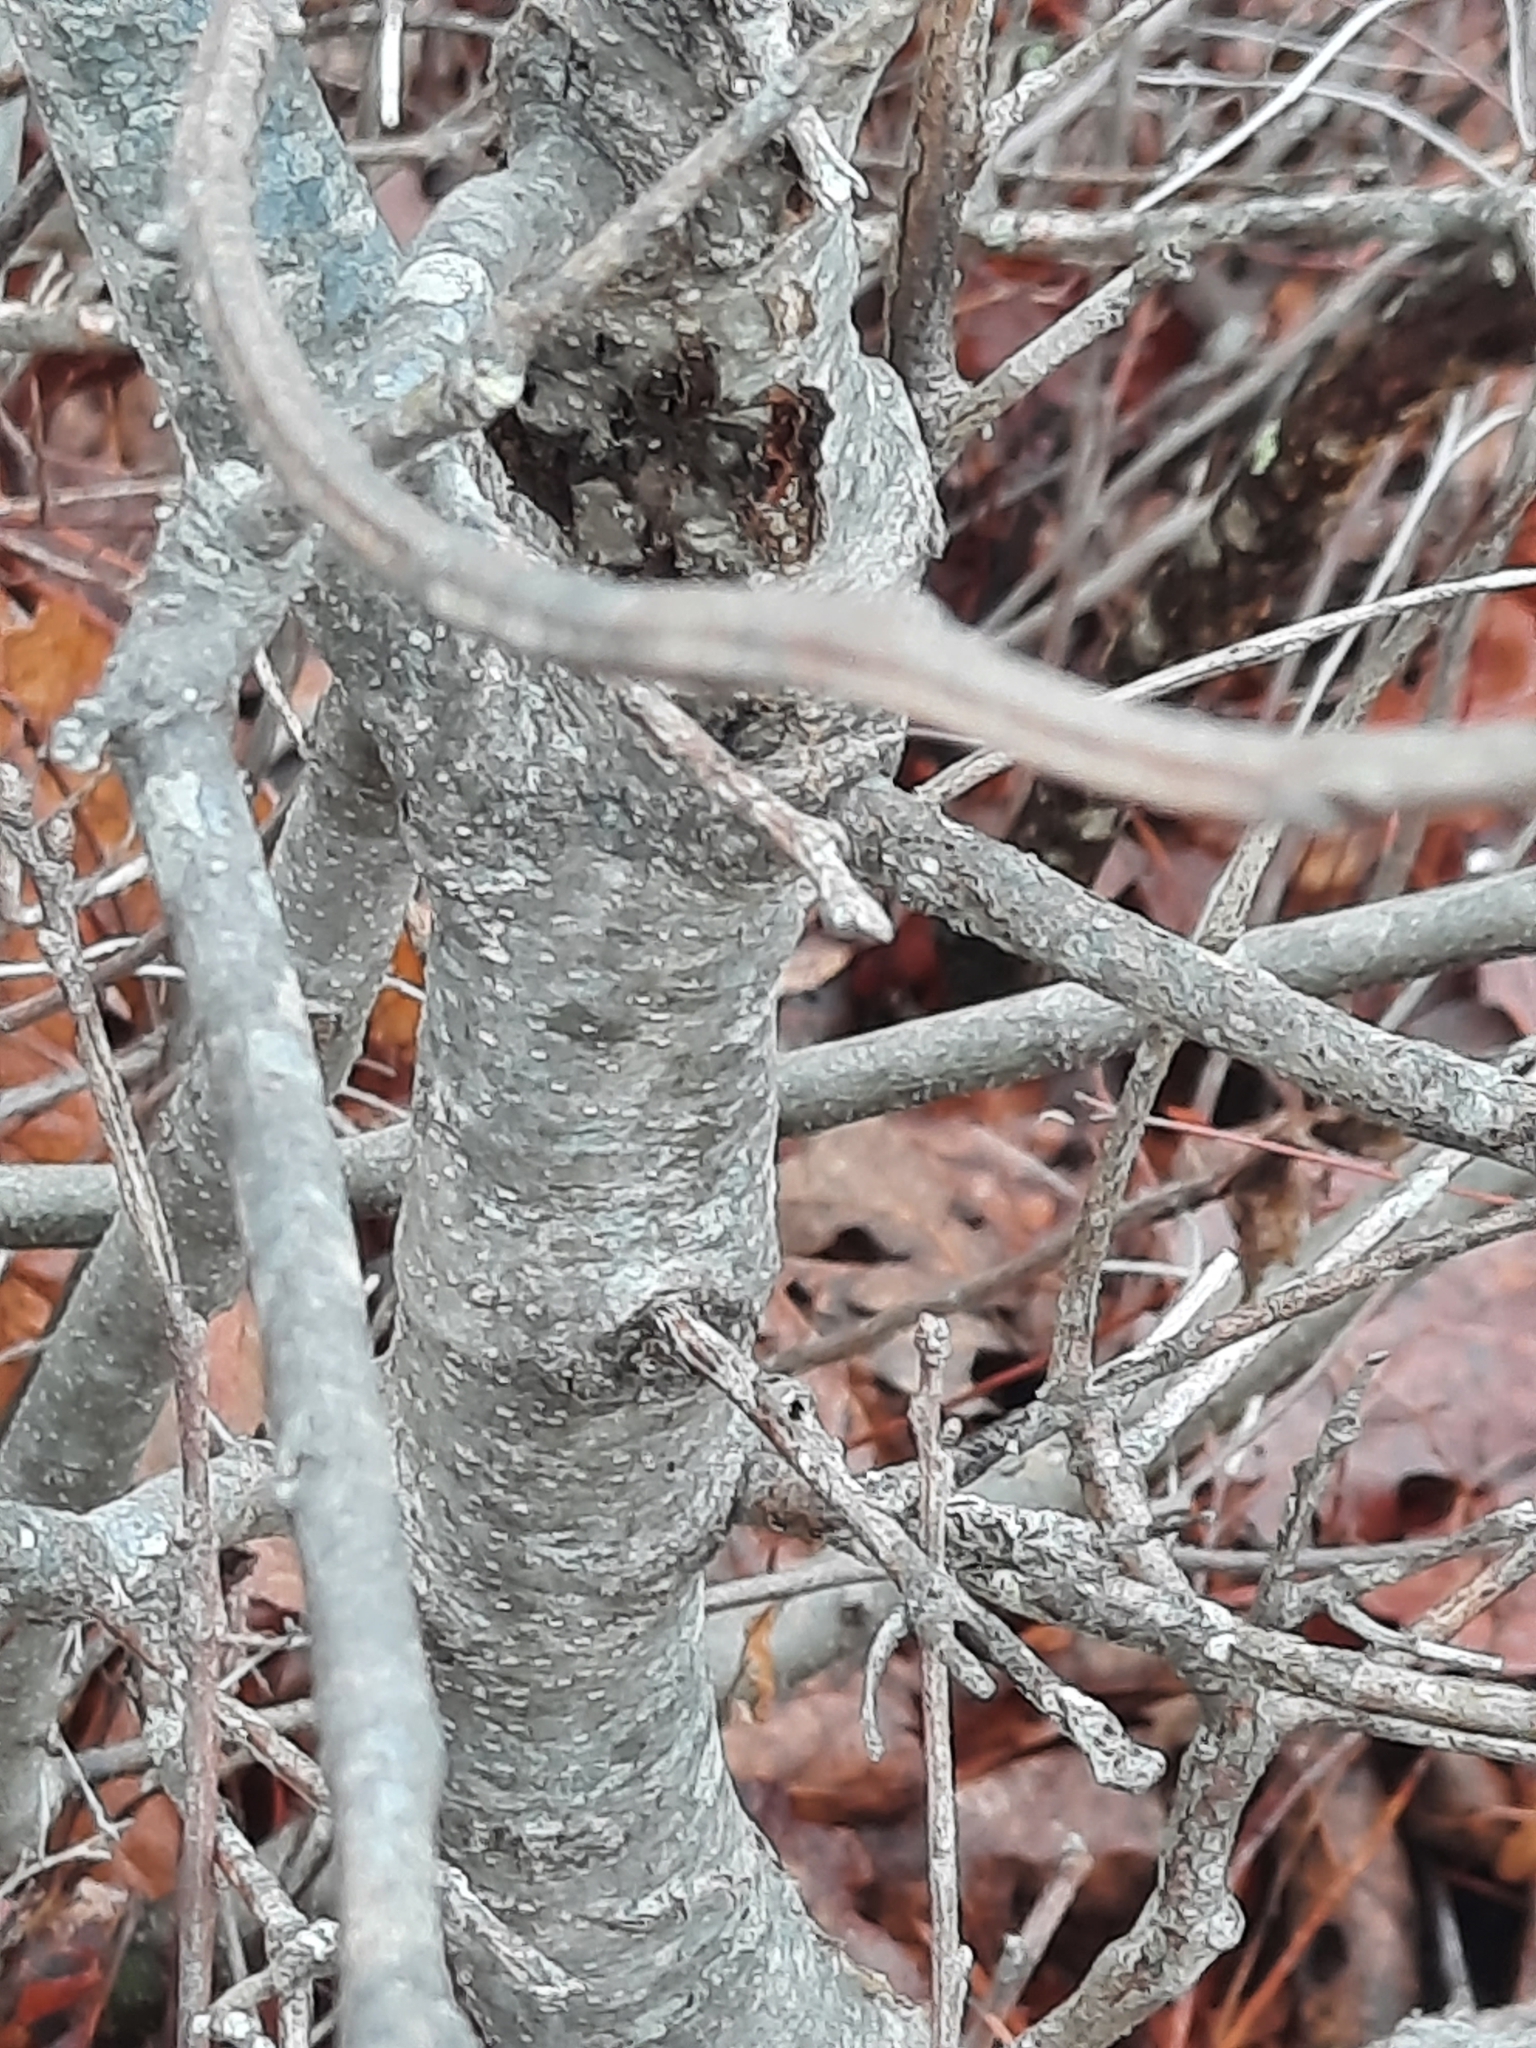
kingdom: Plantae
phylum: Tracheophyta
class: Magnoliopsida
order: Fagales
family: Fagaceae
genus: Quercus
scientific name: Quercus ilicifolia
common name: Bear oak
